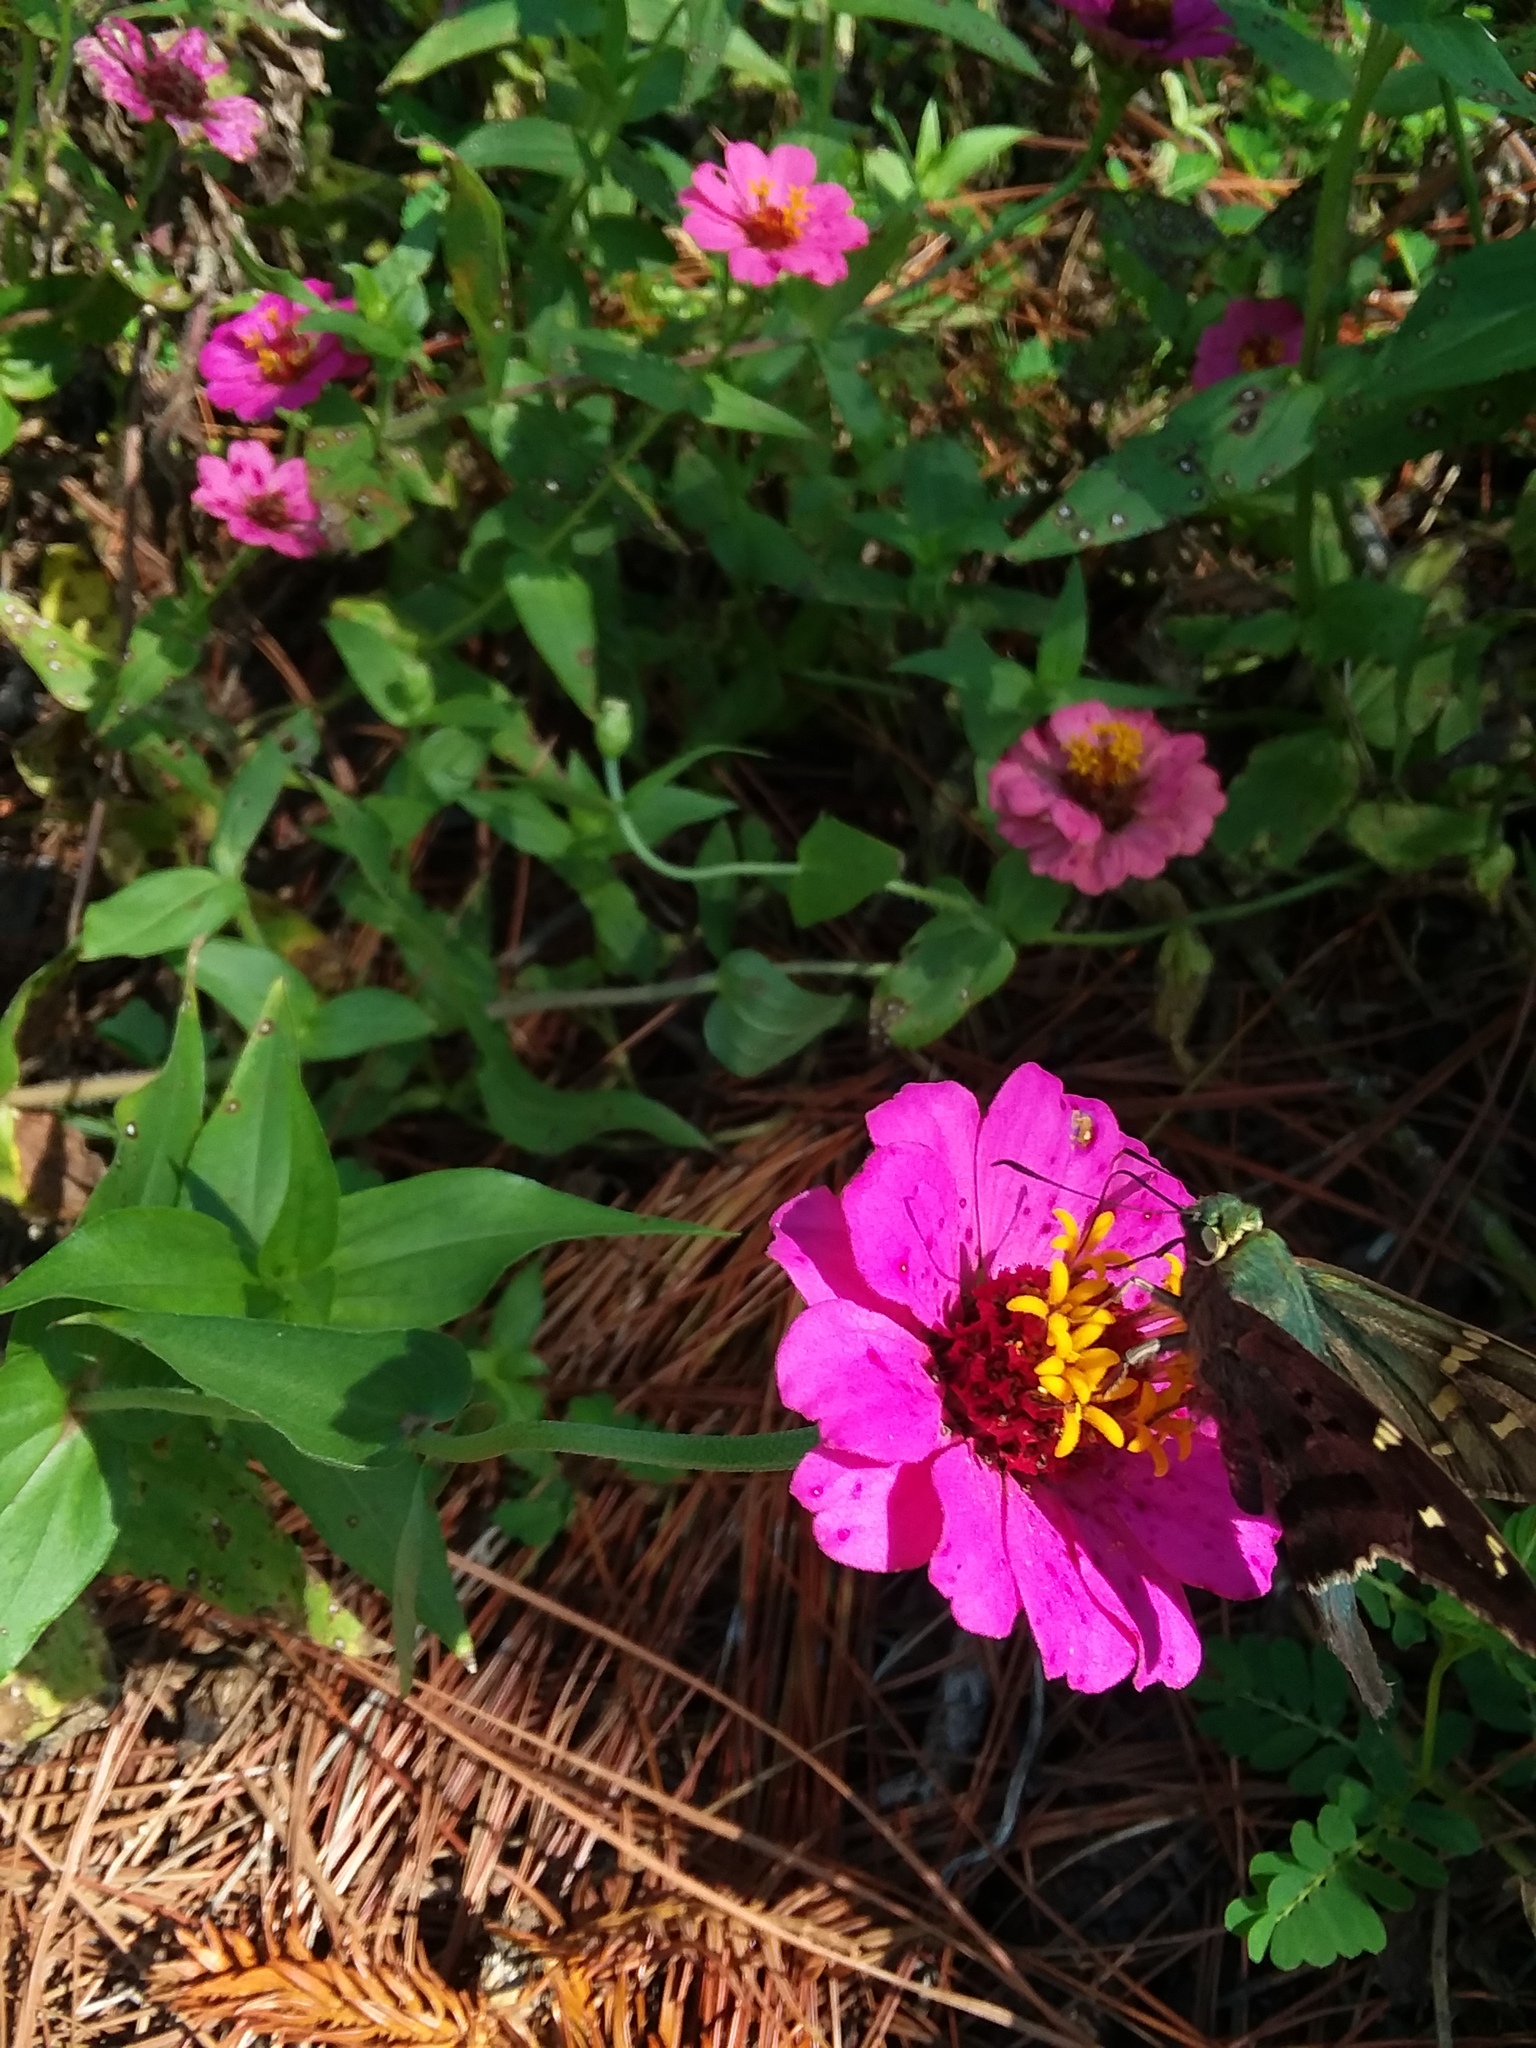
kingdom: Animalia
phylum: Arthropoda
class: Insecta
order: Lepidoptera
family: Hesperiidae
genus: Urbanus
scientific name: Urbanus proteus
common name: Long-tailed skipper
